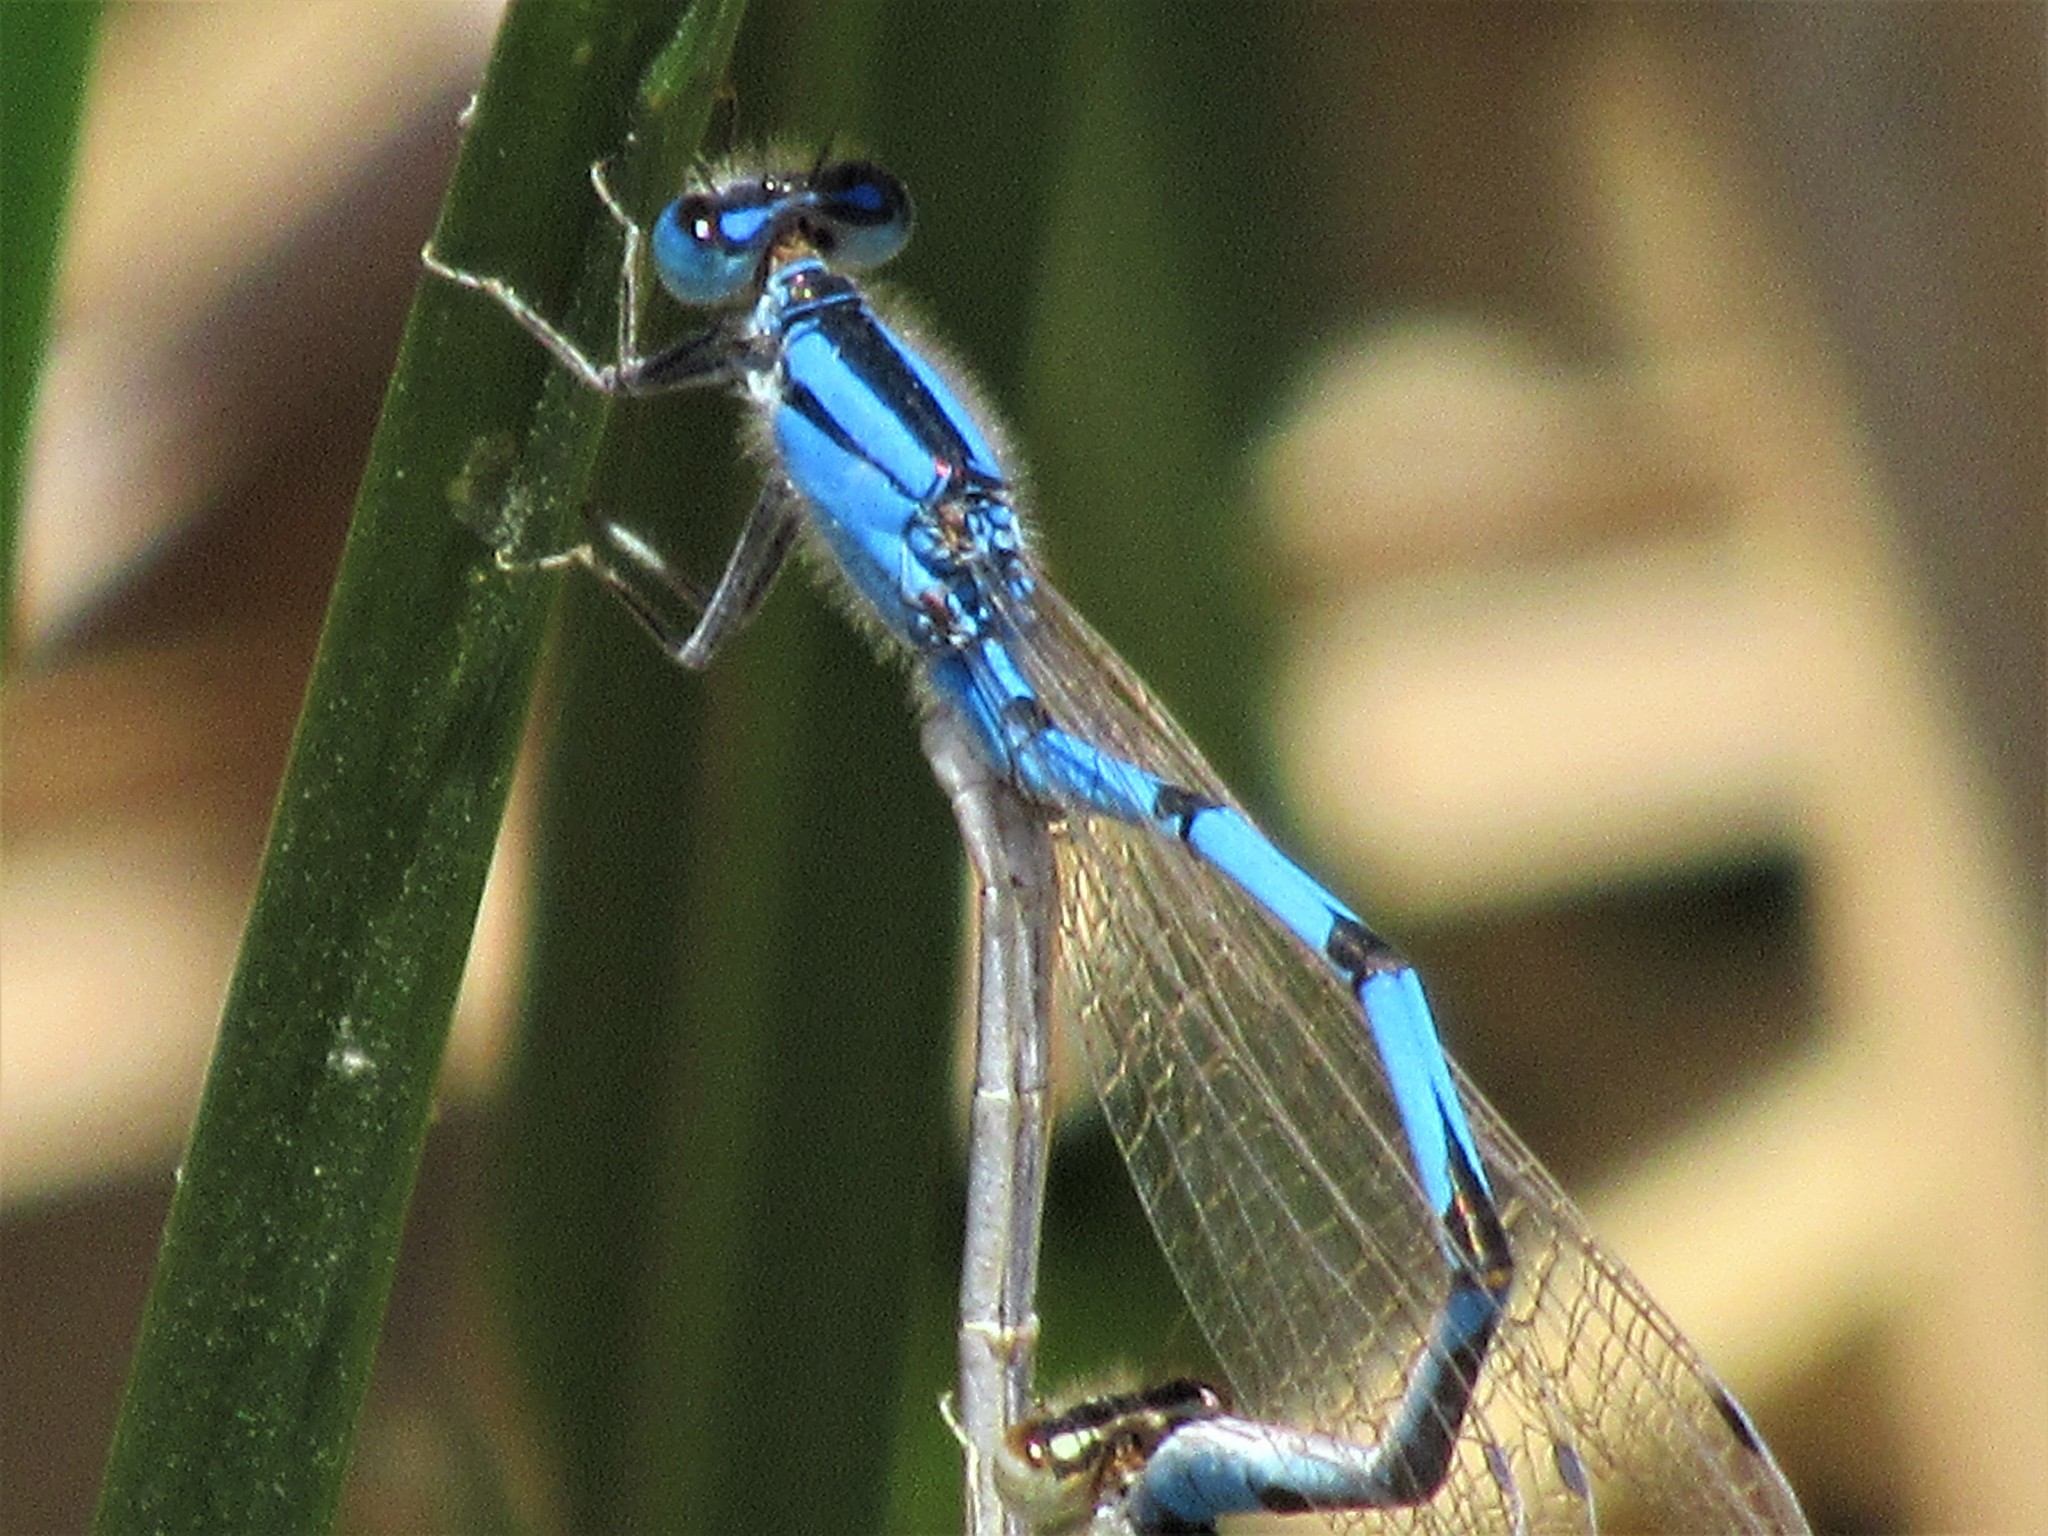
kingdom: Animalia
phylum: Arthropoda
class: Insecta
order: Odonata
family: Coenagrionidae
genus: Enallagma
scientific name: Enallagma civile
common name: Damselfly
